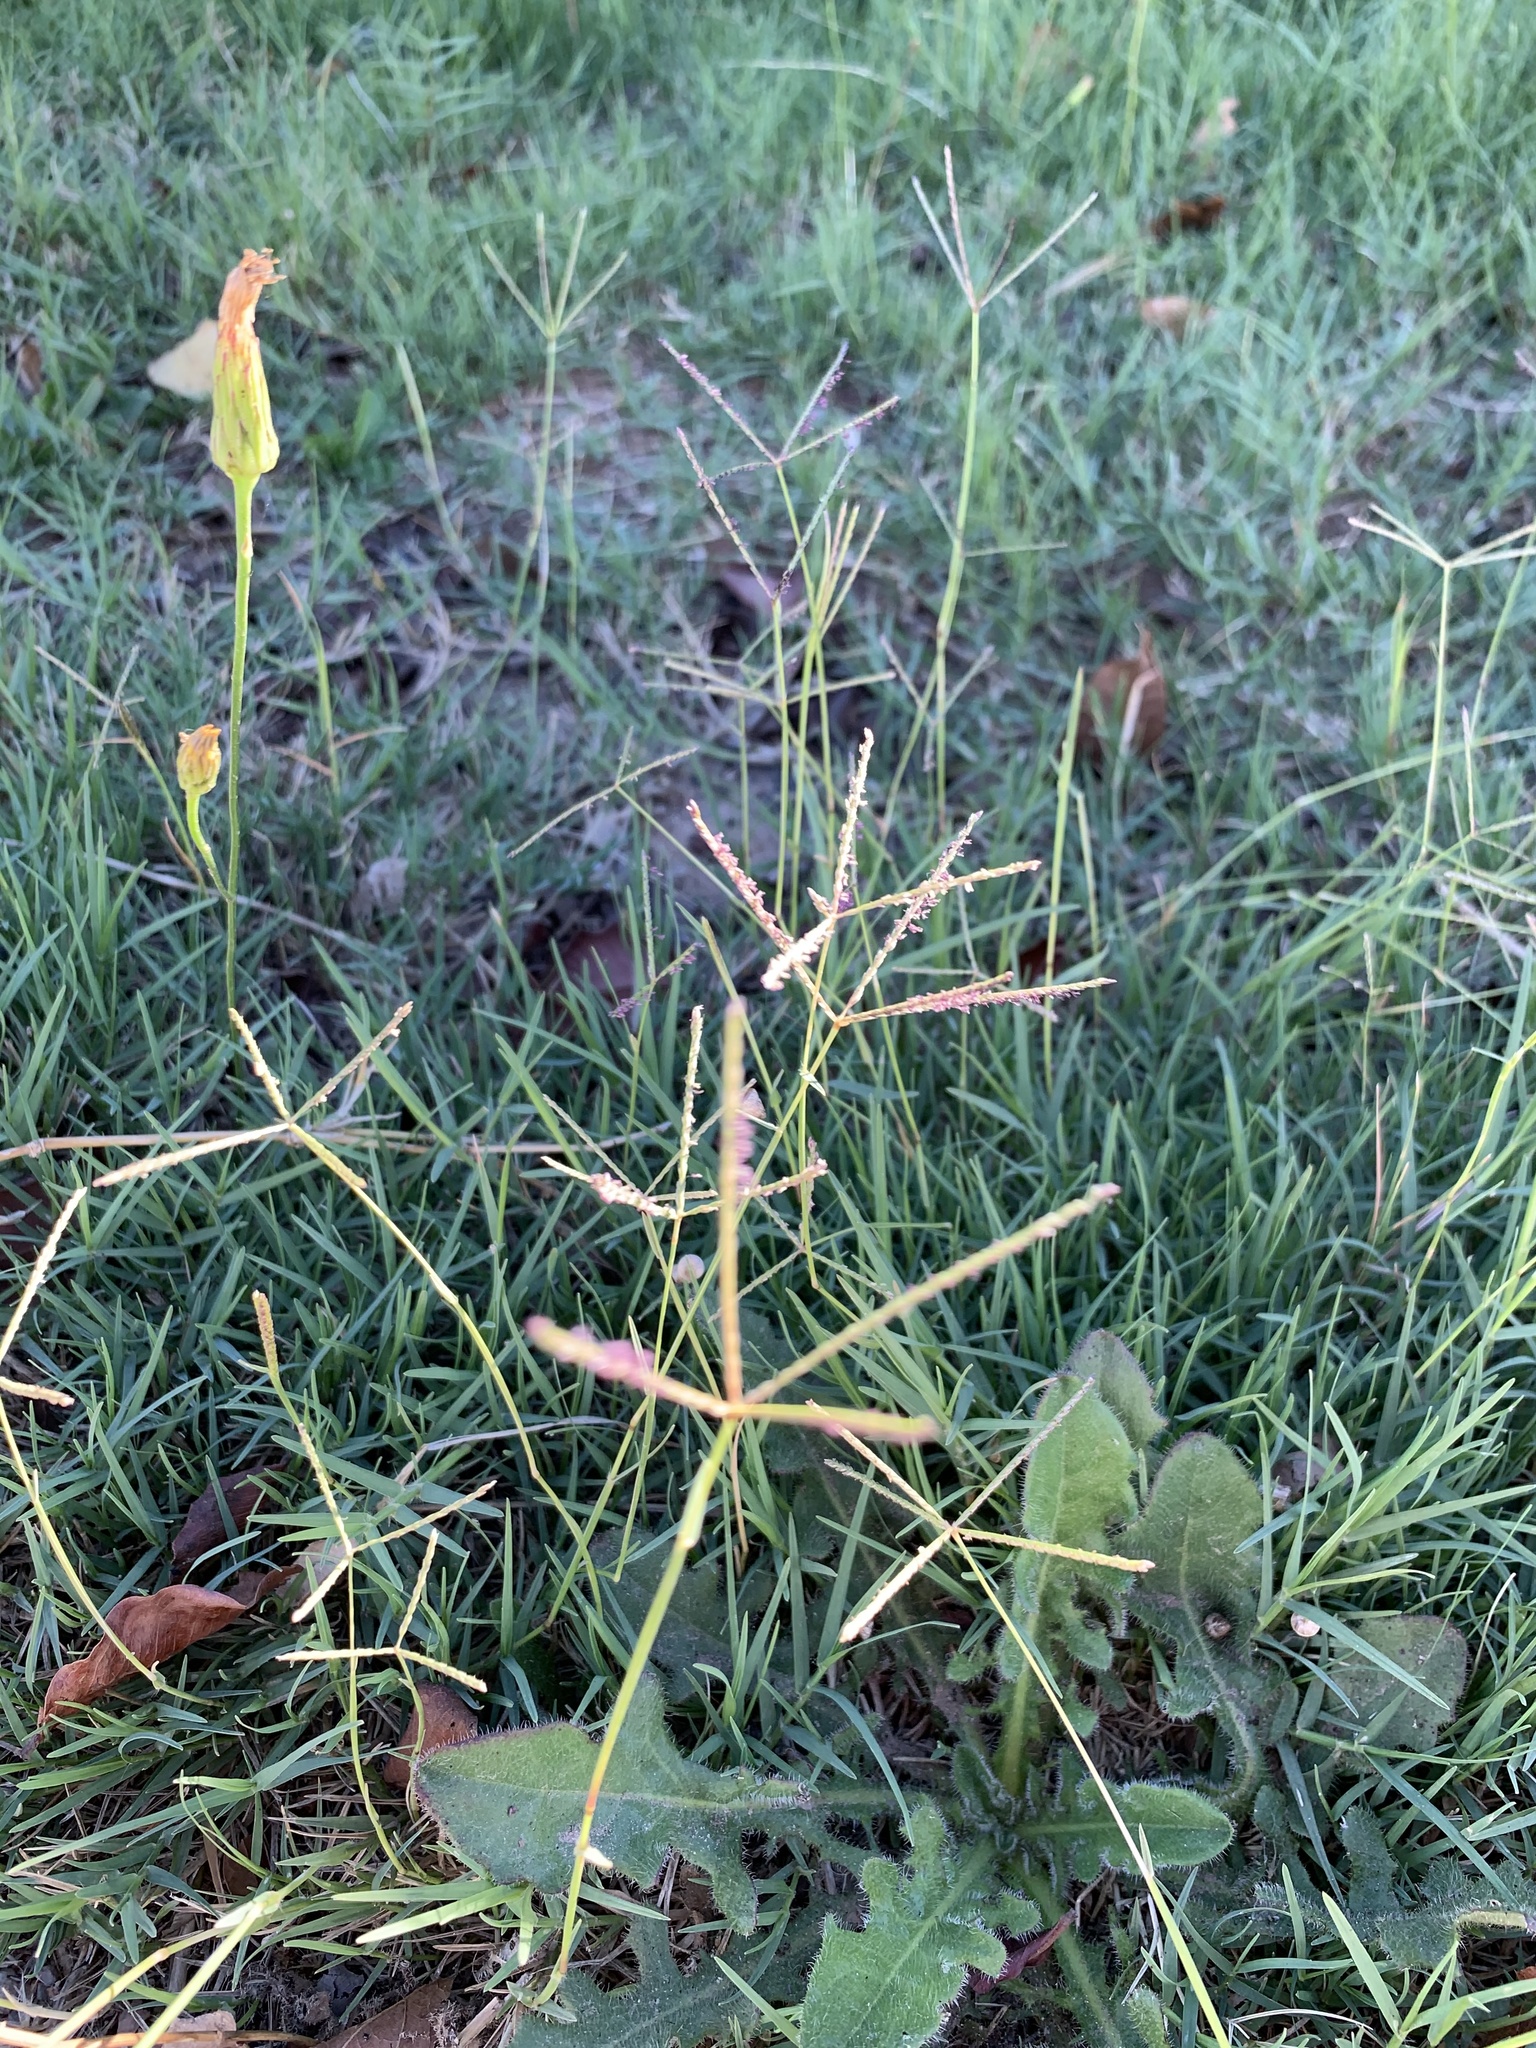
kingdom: Plantae
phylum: Tracheophyta
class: Liliopsida
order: Poales
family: Poaceae
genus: Cynodon
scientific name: Cynodon dactylon
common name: Bermuda grass
